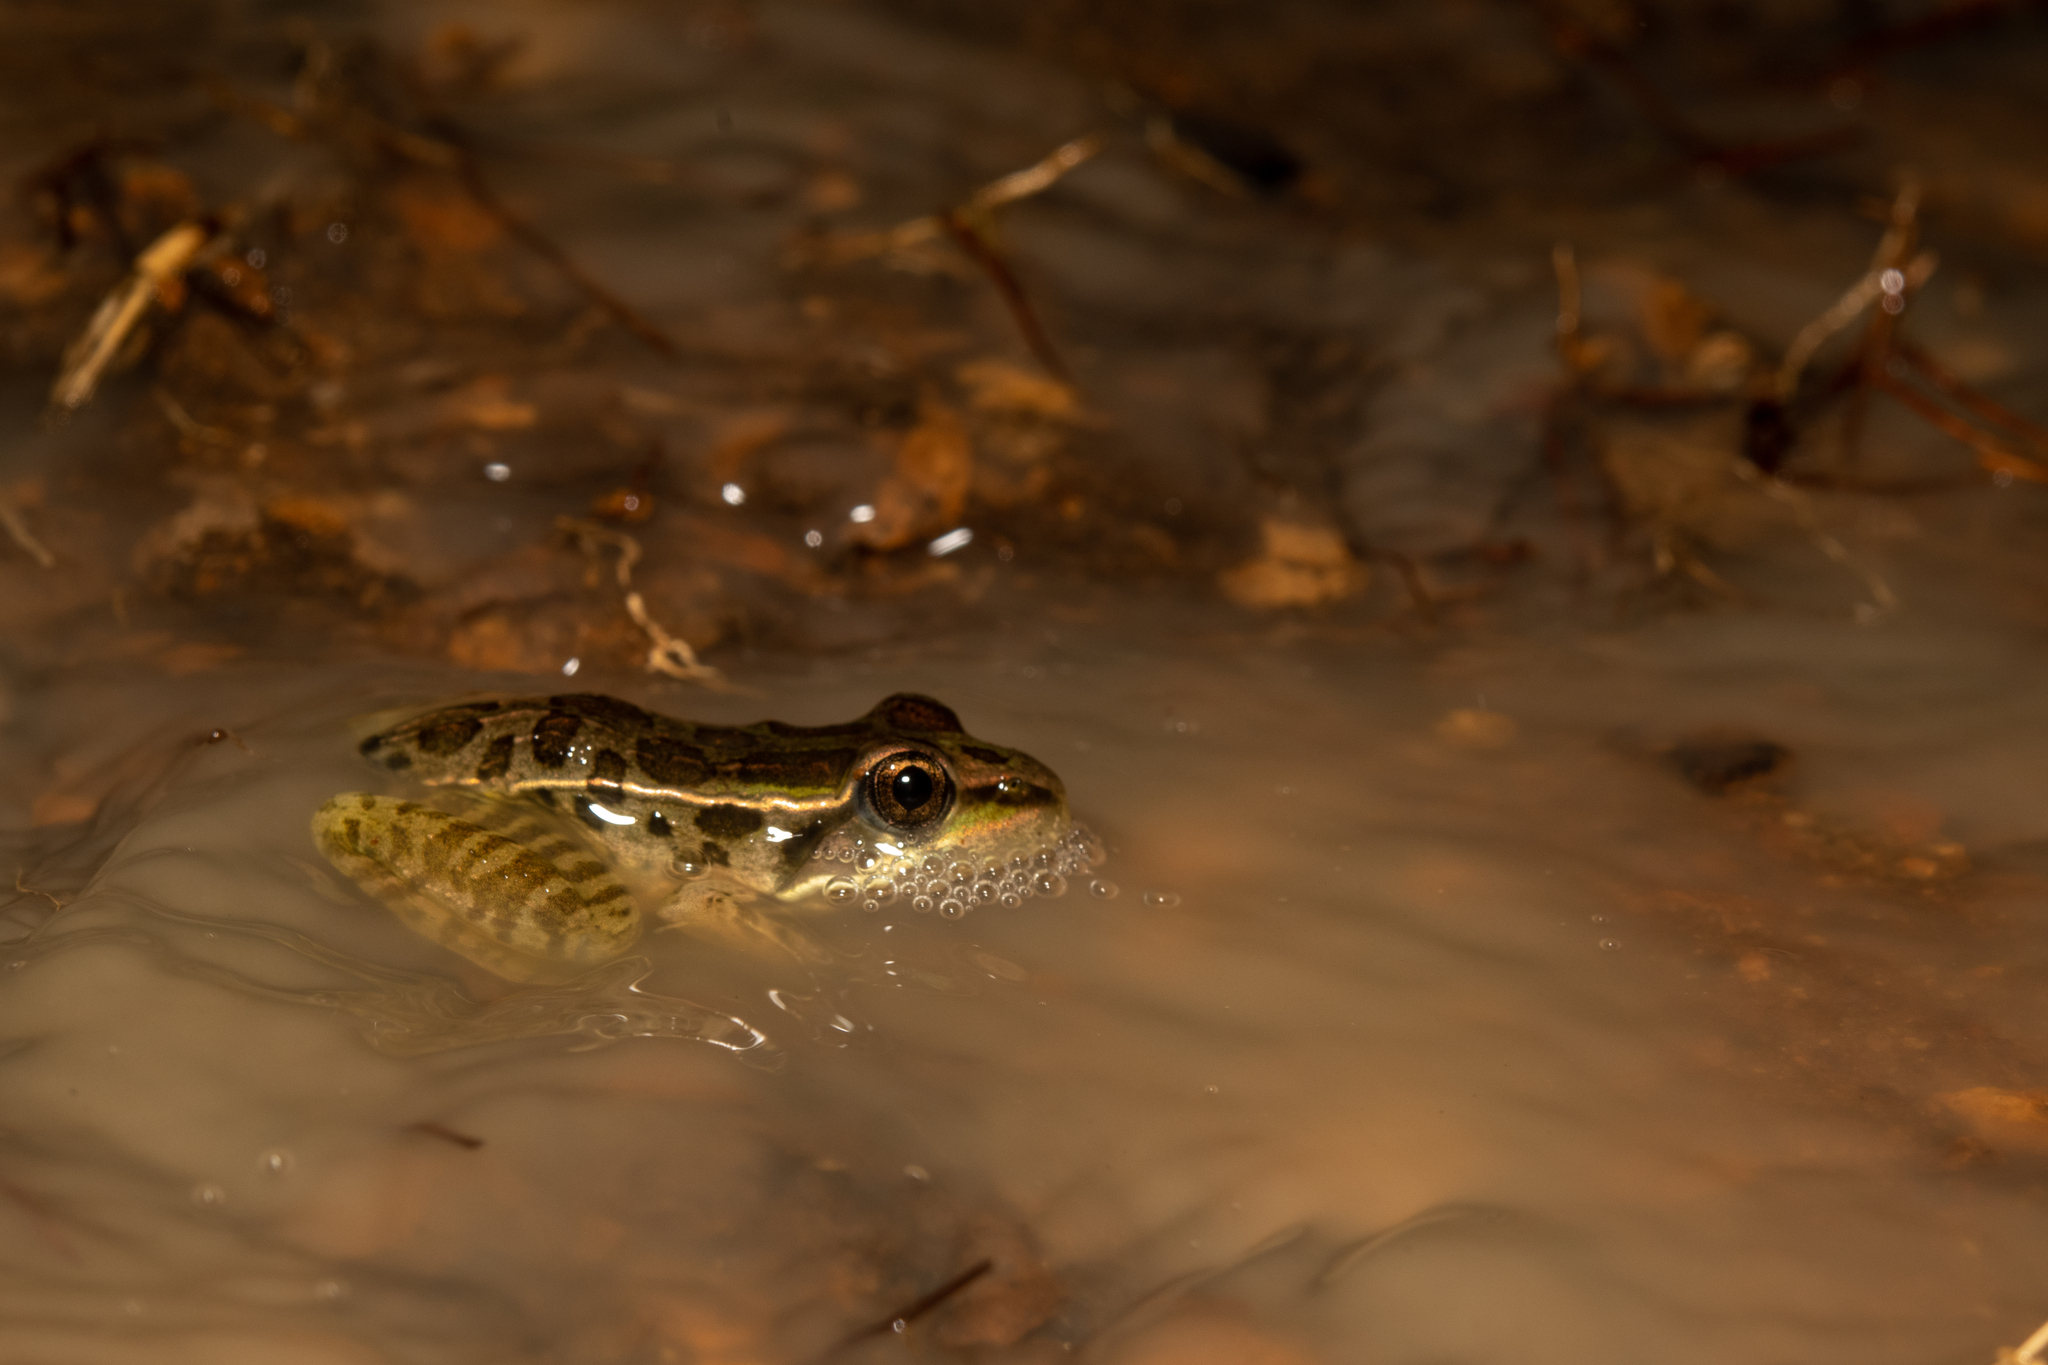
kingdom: Animalia
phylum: Chordata
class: Amphibia
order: Anura
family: Ranidae
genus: Lithobates
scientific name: Lithobates lenca
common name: Lenca leopard frog
